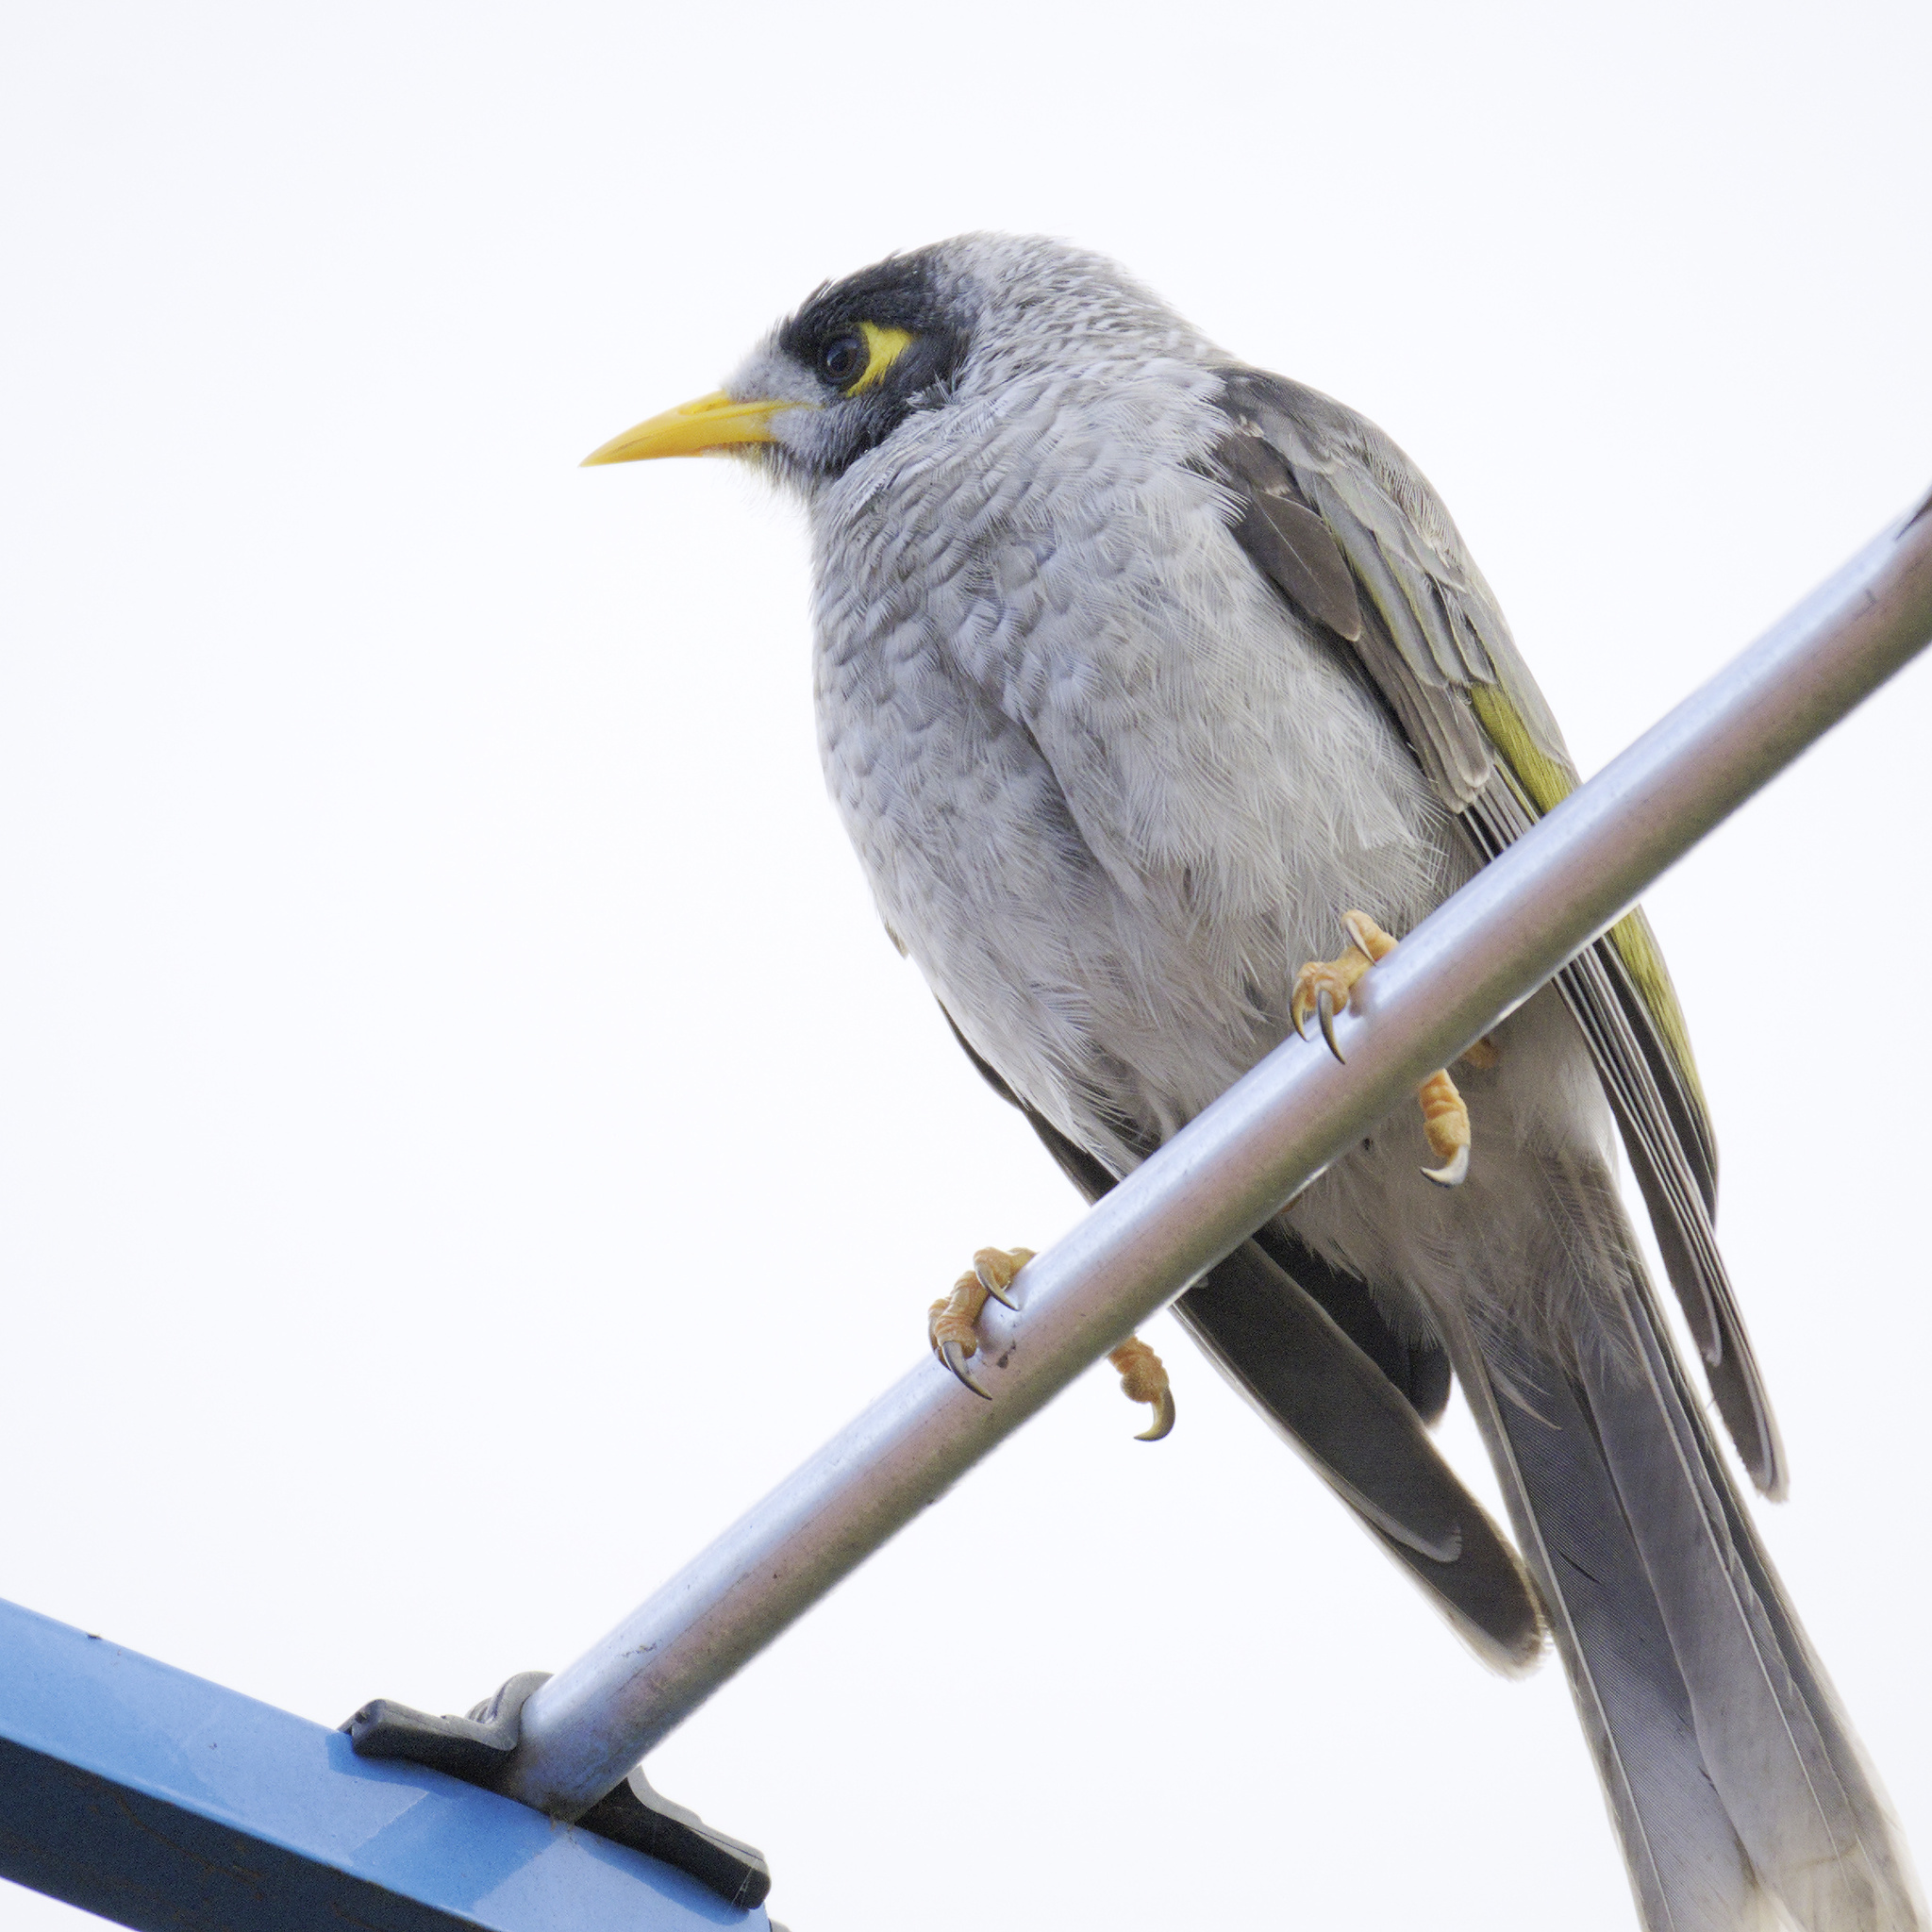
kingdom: Animalia
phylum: Chordata
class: Aves
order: Passeriformes
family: Meliphagidae
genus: Manorina
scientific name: Manorina melanocephala
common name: Noisy miner
